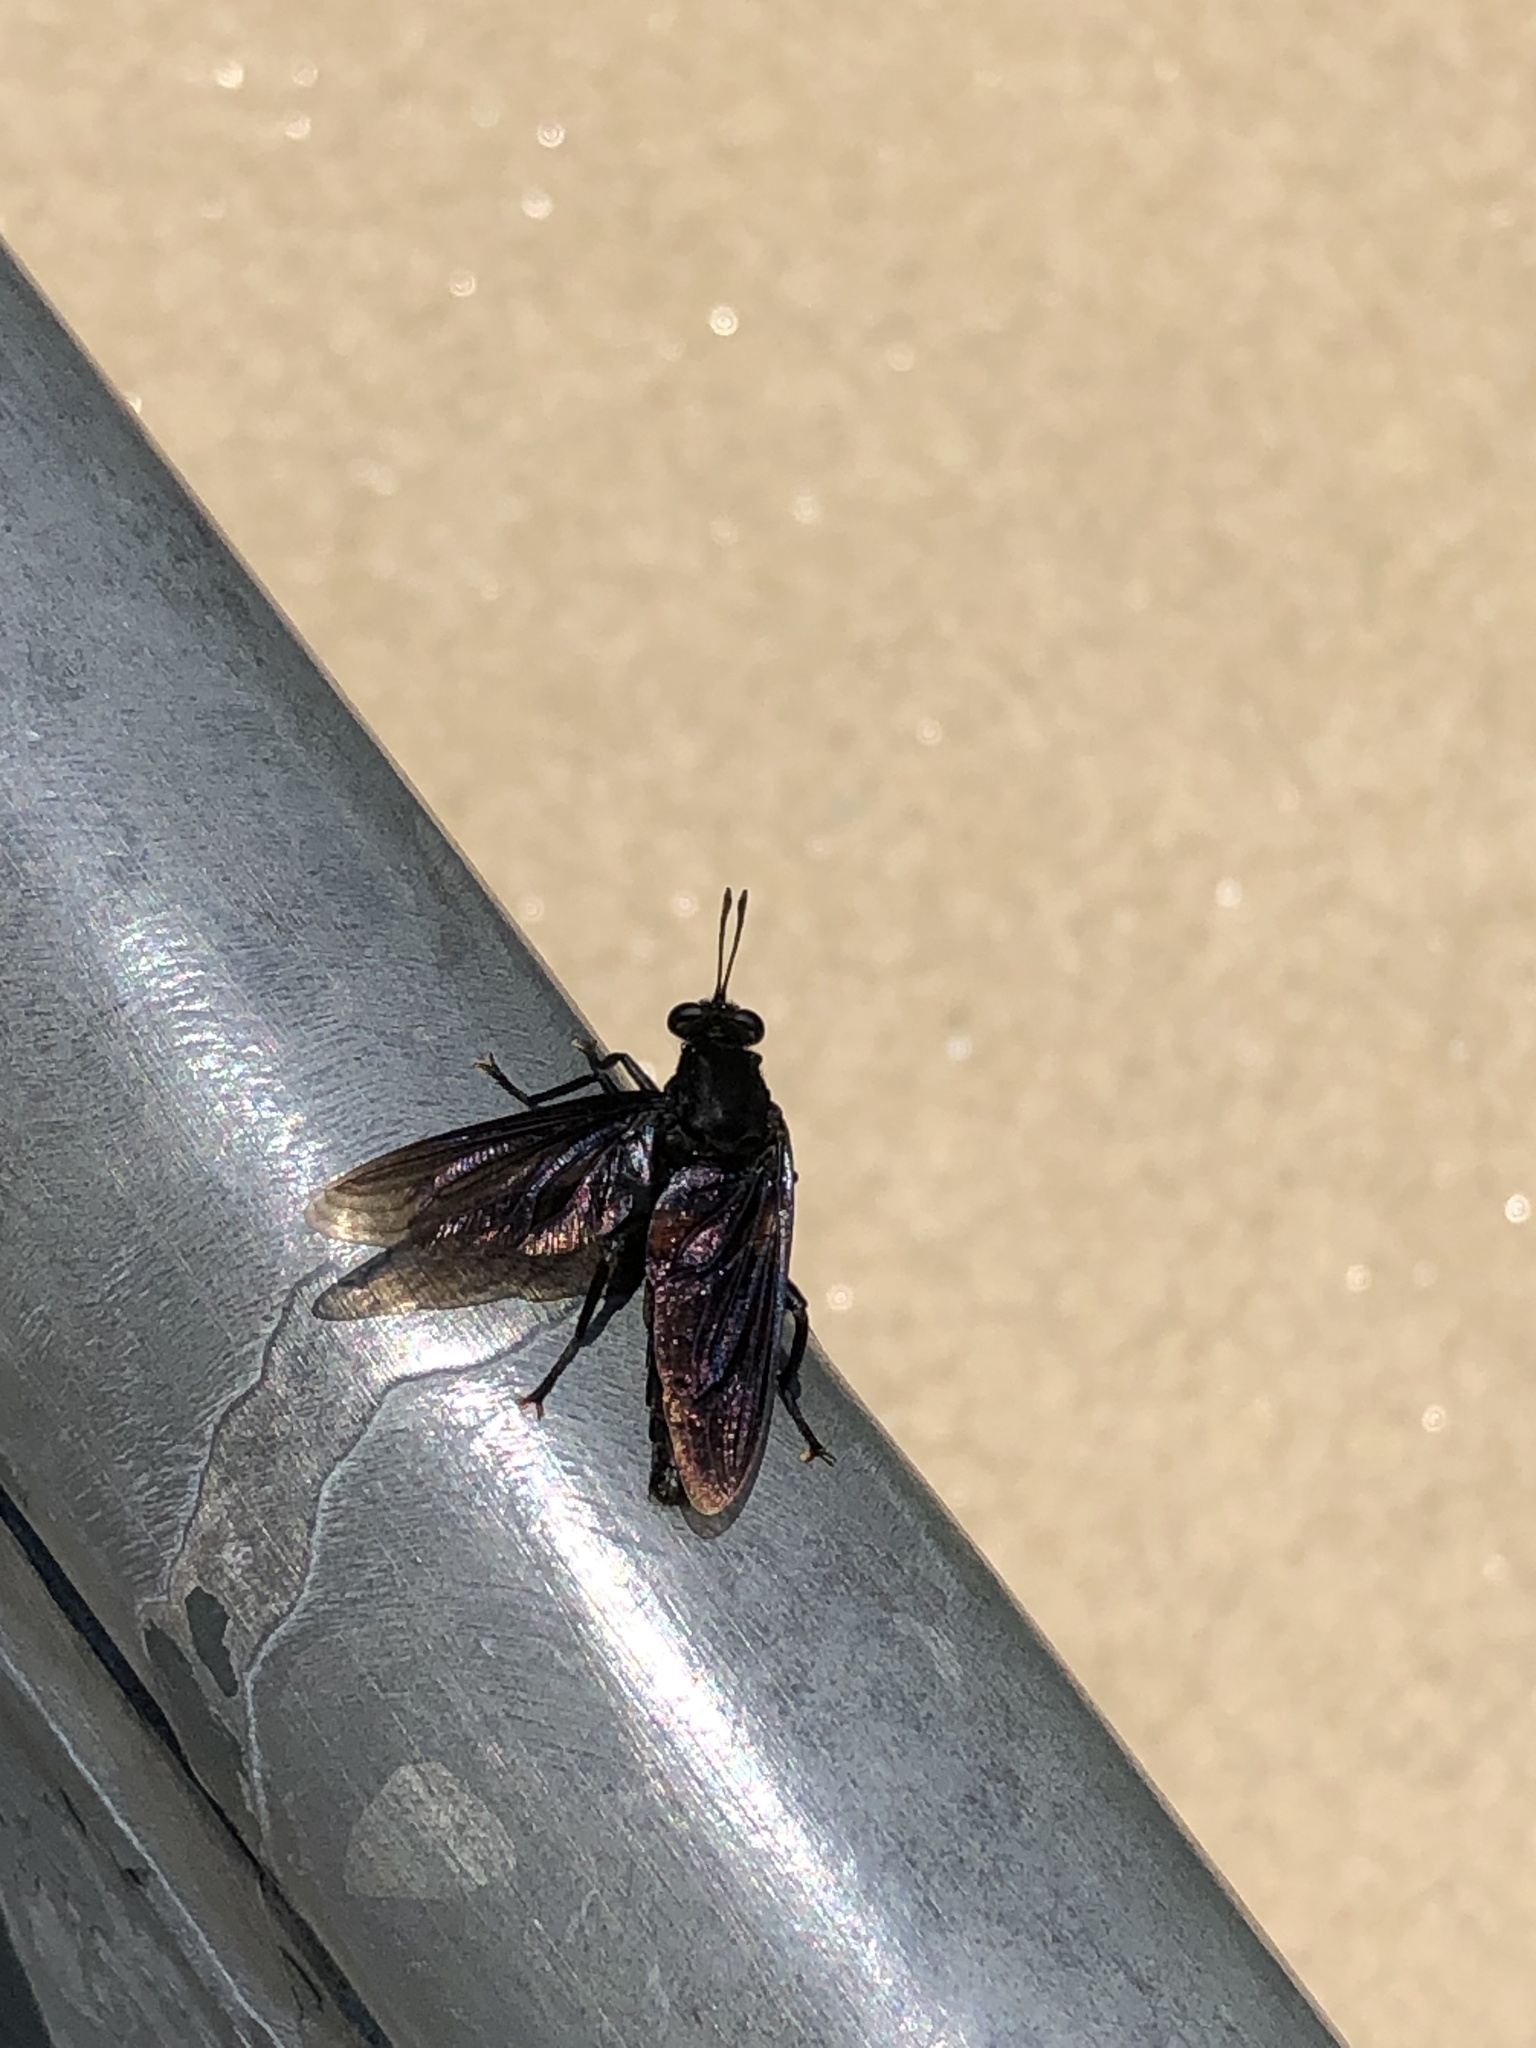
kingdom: Animalia
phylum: Arthropoda
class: Insecta
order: Diptera
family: Mydidae
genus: Mydas
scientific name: Mydas clavatus
